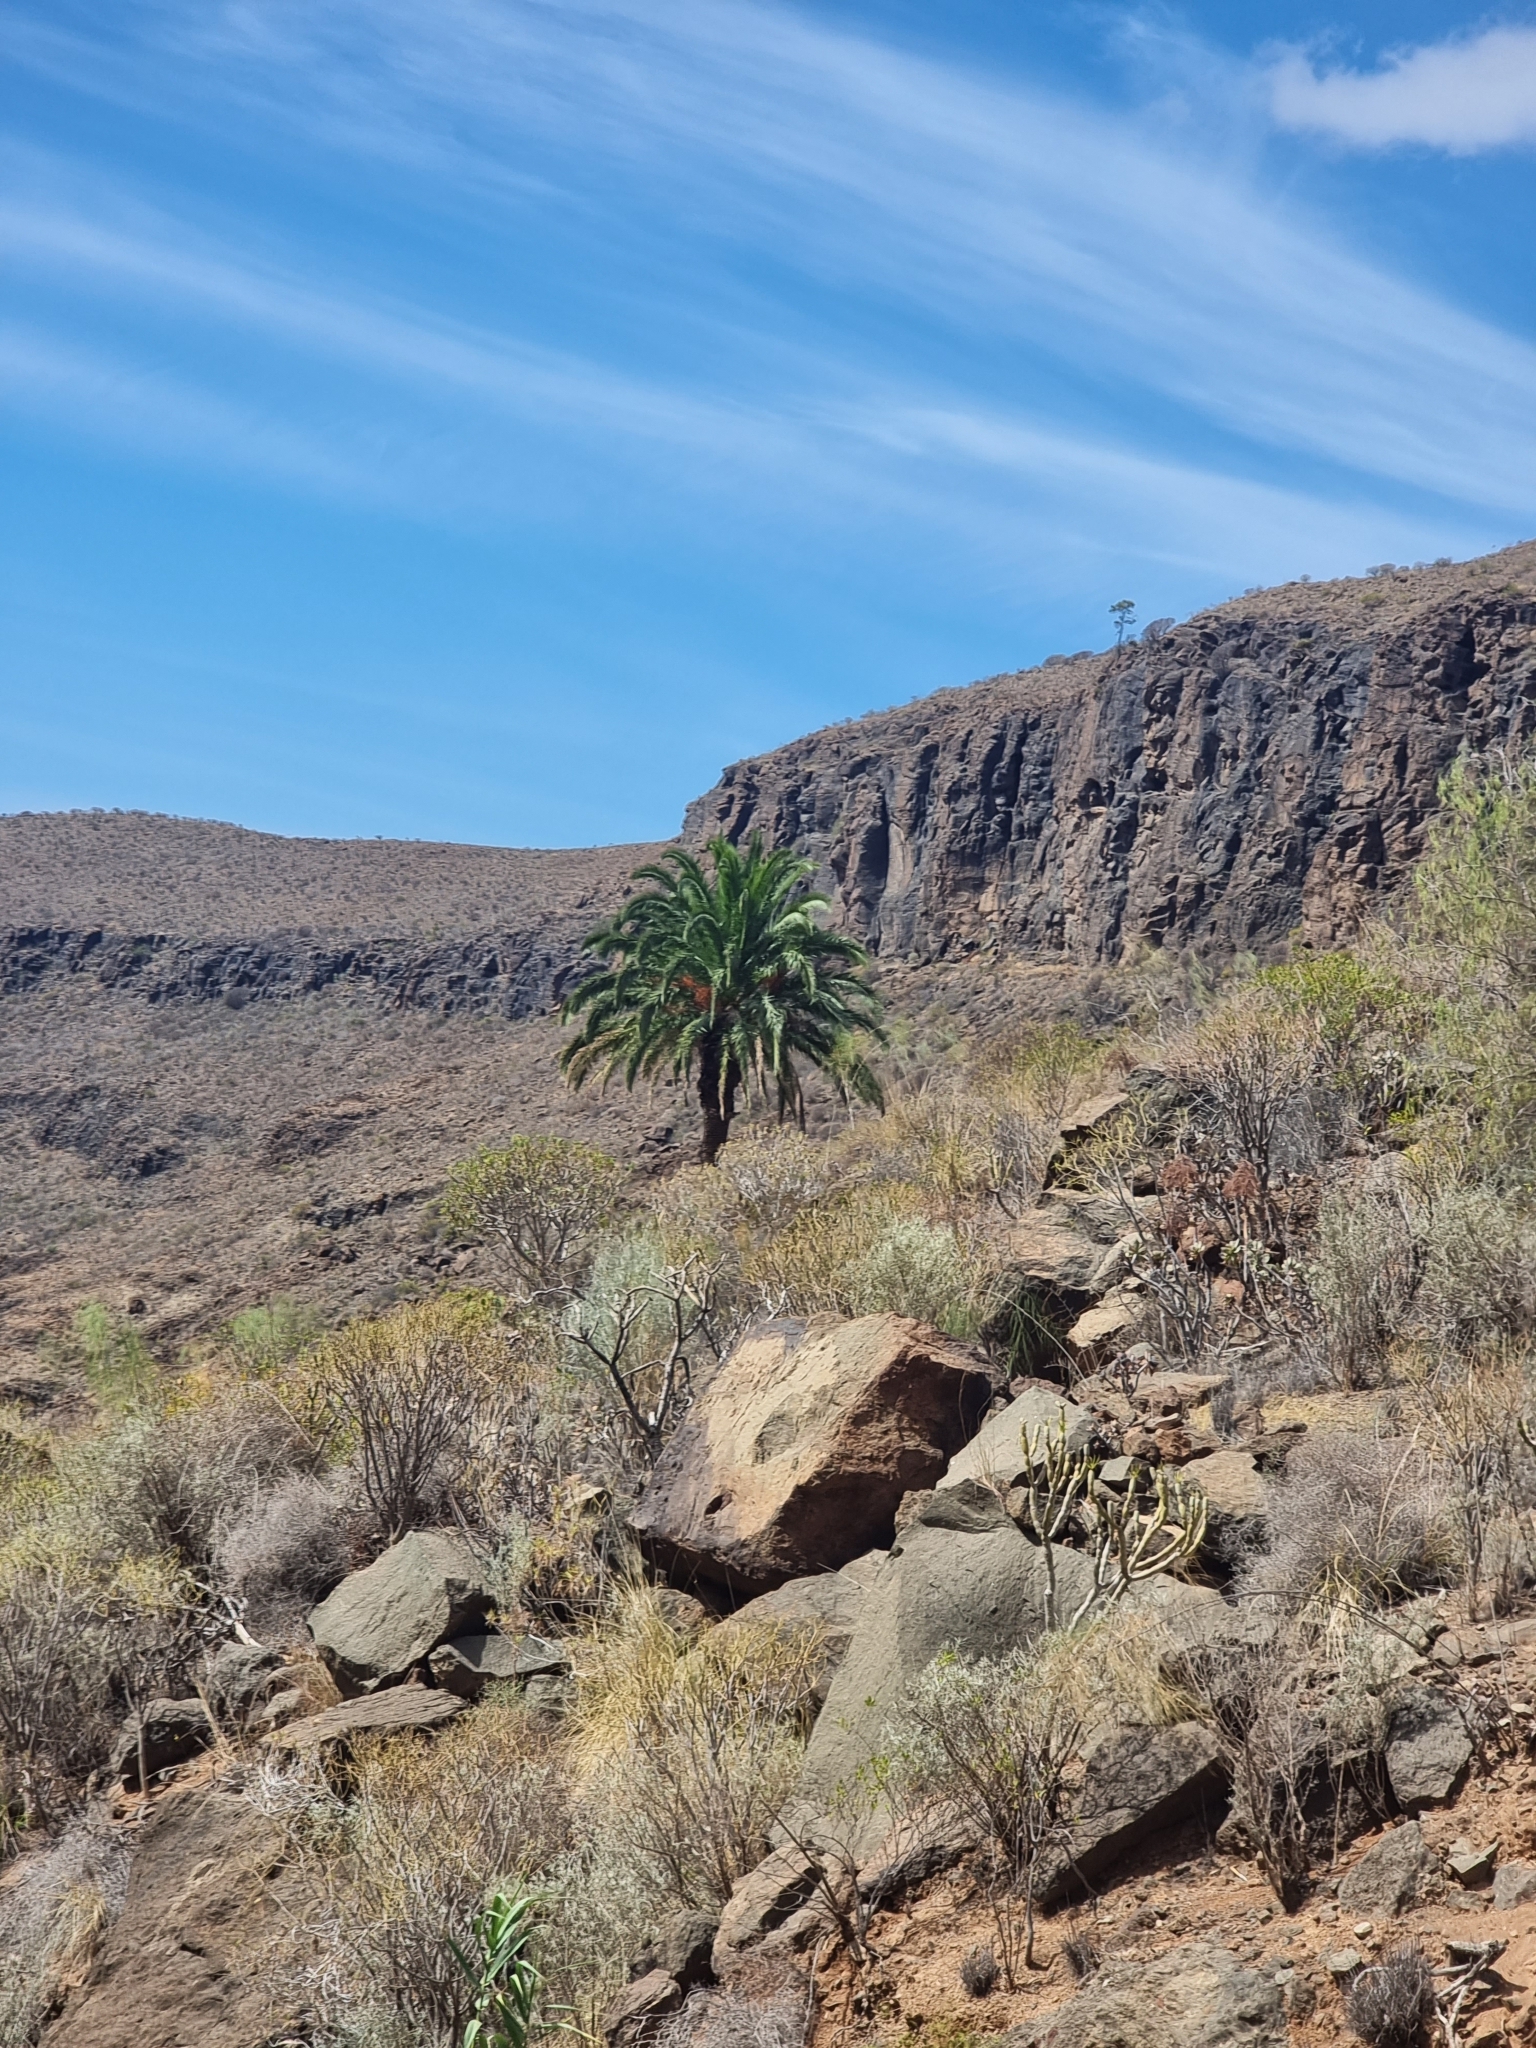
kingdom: Plantae
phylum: Tracheophyta
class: Liliopsida
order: Arecales
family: Arecaceae
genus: Phoenix
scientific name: Phoenix canariensis
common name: Canary island date palm
